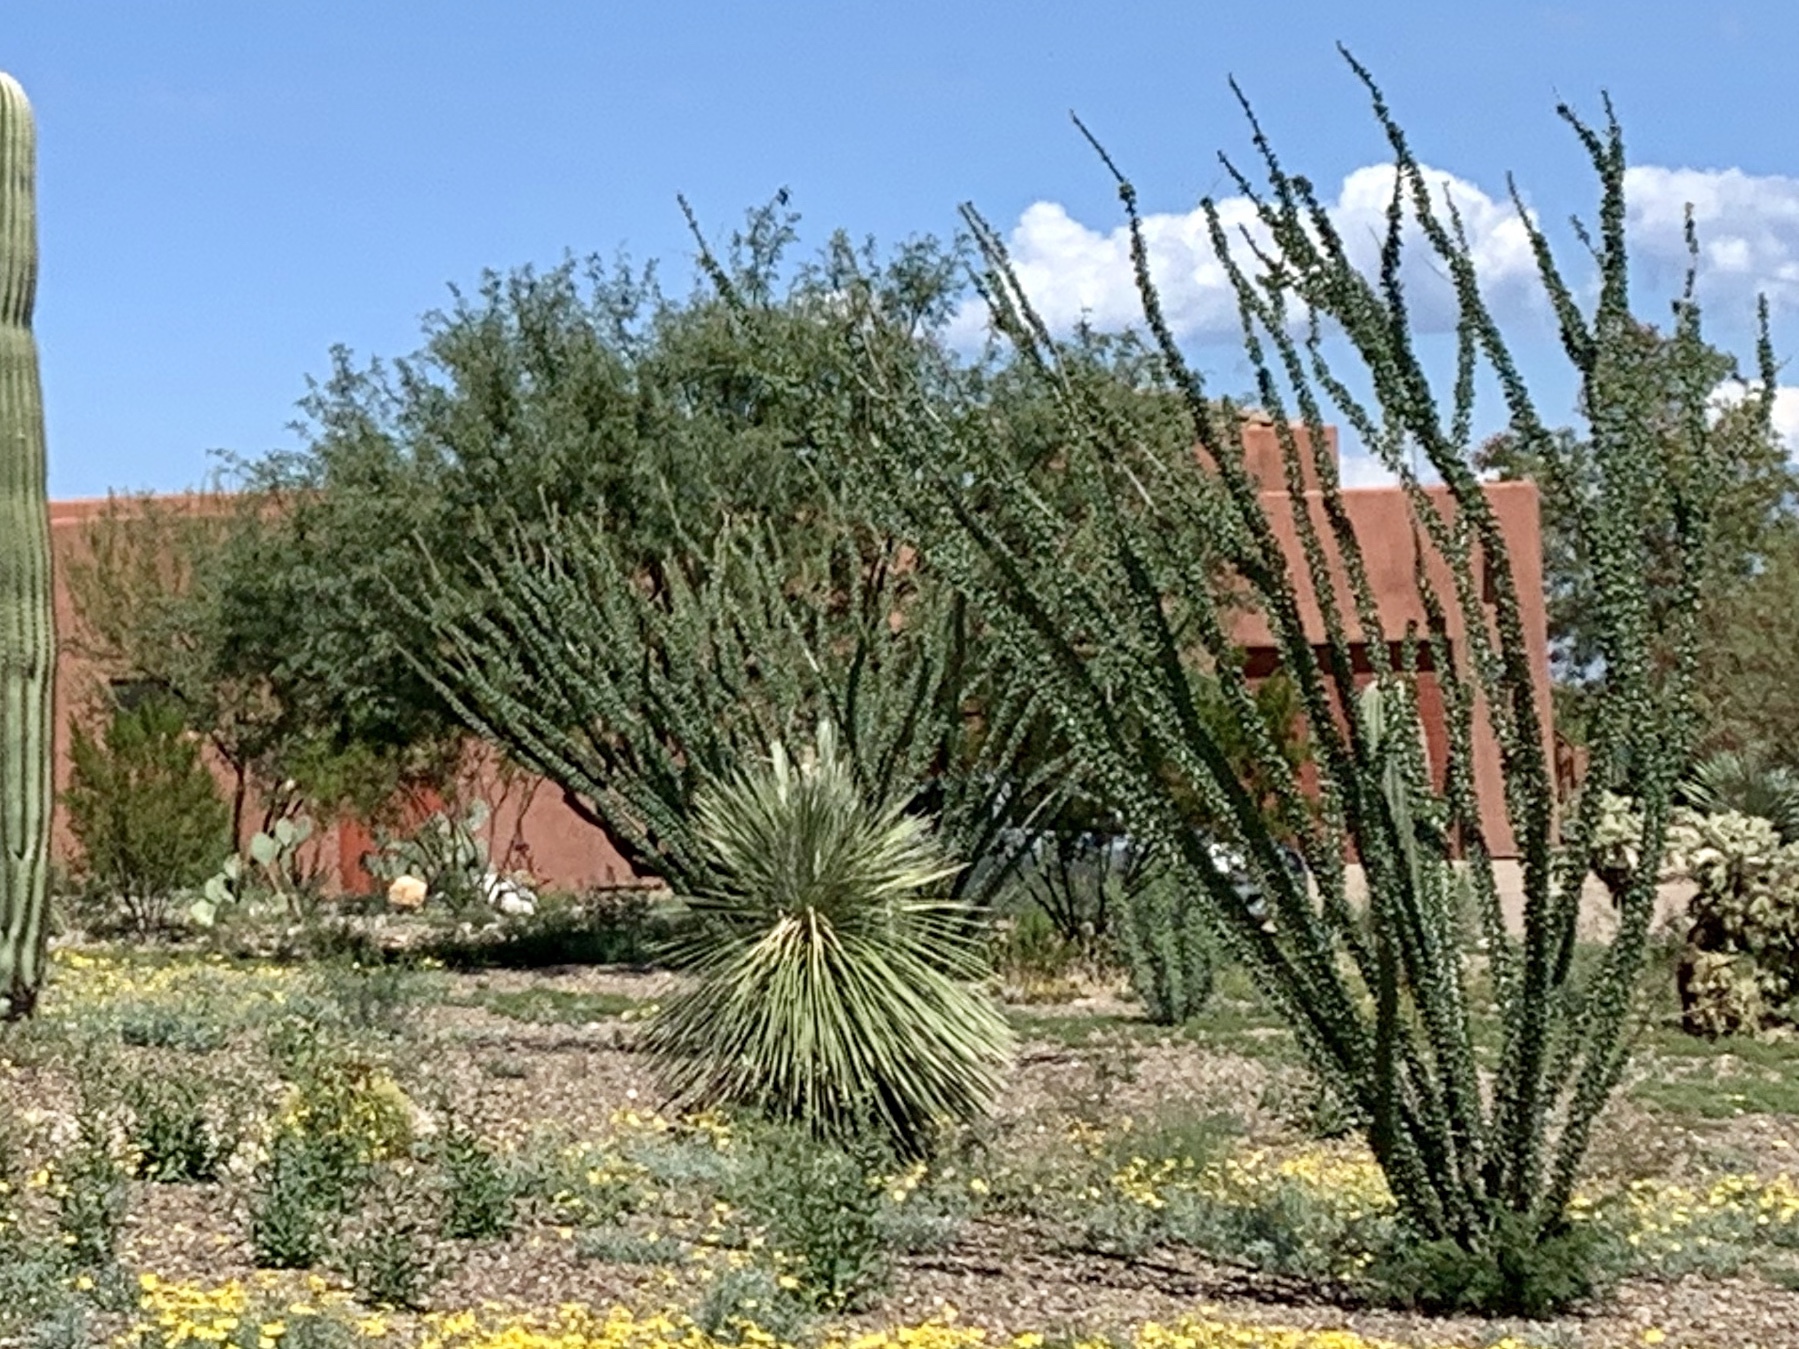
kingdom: Plantae
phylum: Tracheophyta
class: Magnoliopsida
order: Ericales
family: Fouquieriaceae
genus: Fouquieria
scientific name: Fouquieria splendens
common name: Vine-cactus
